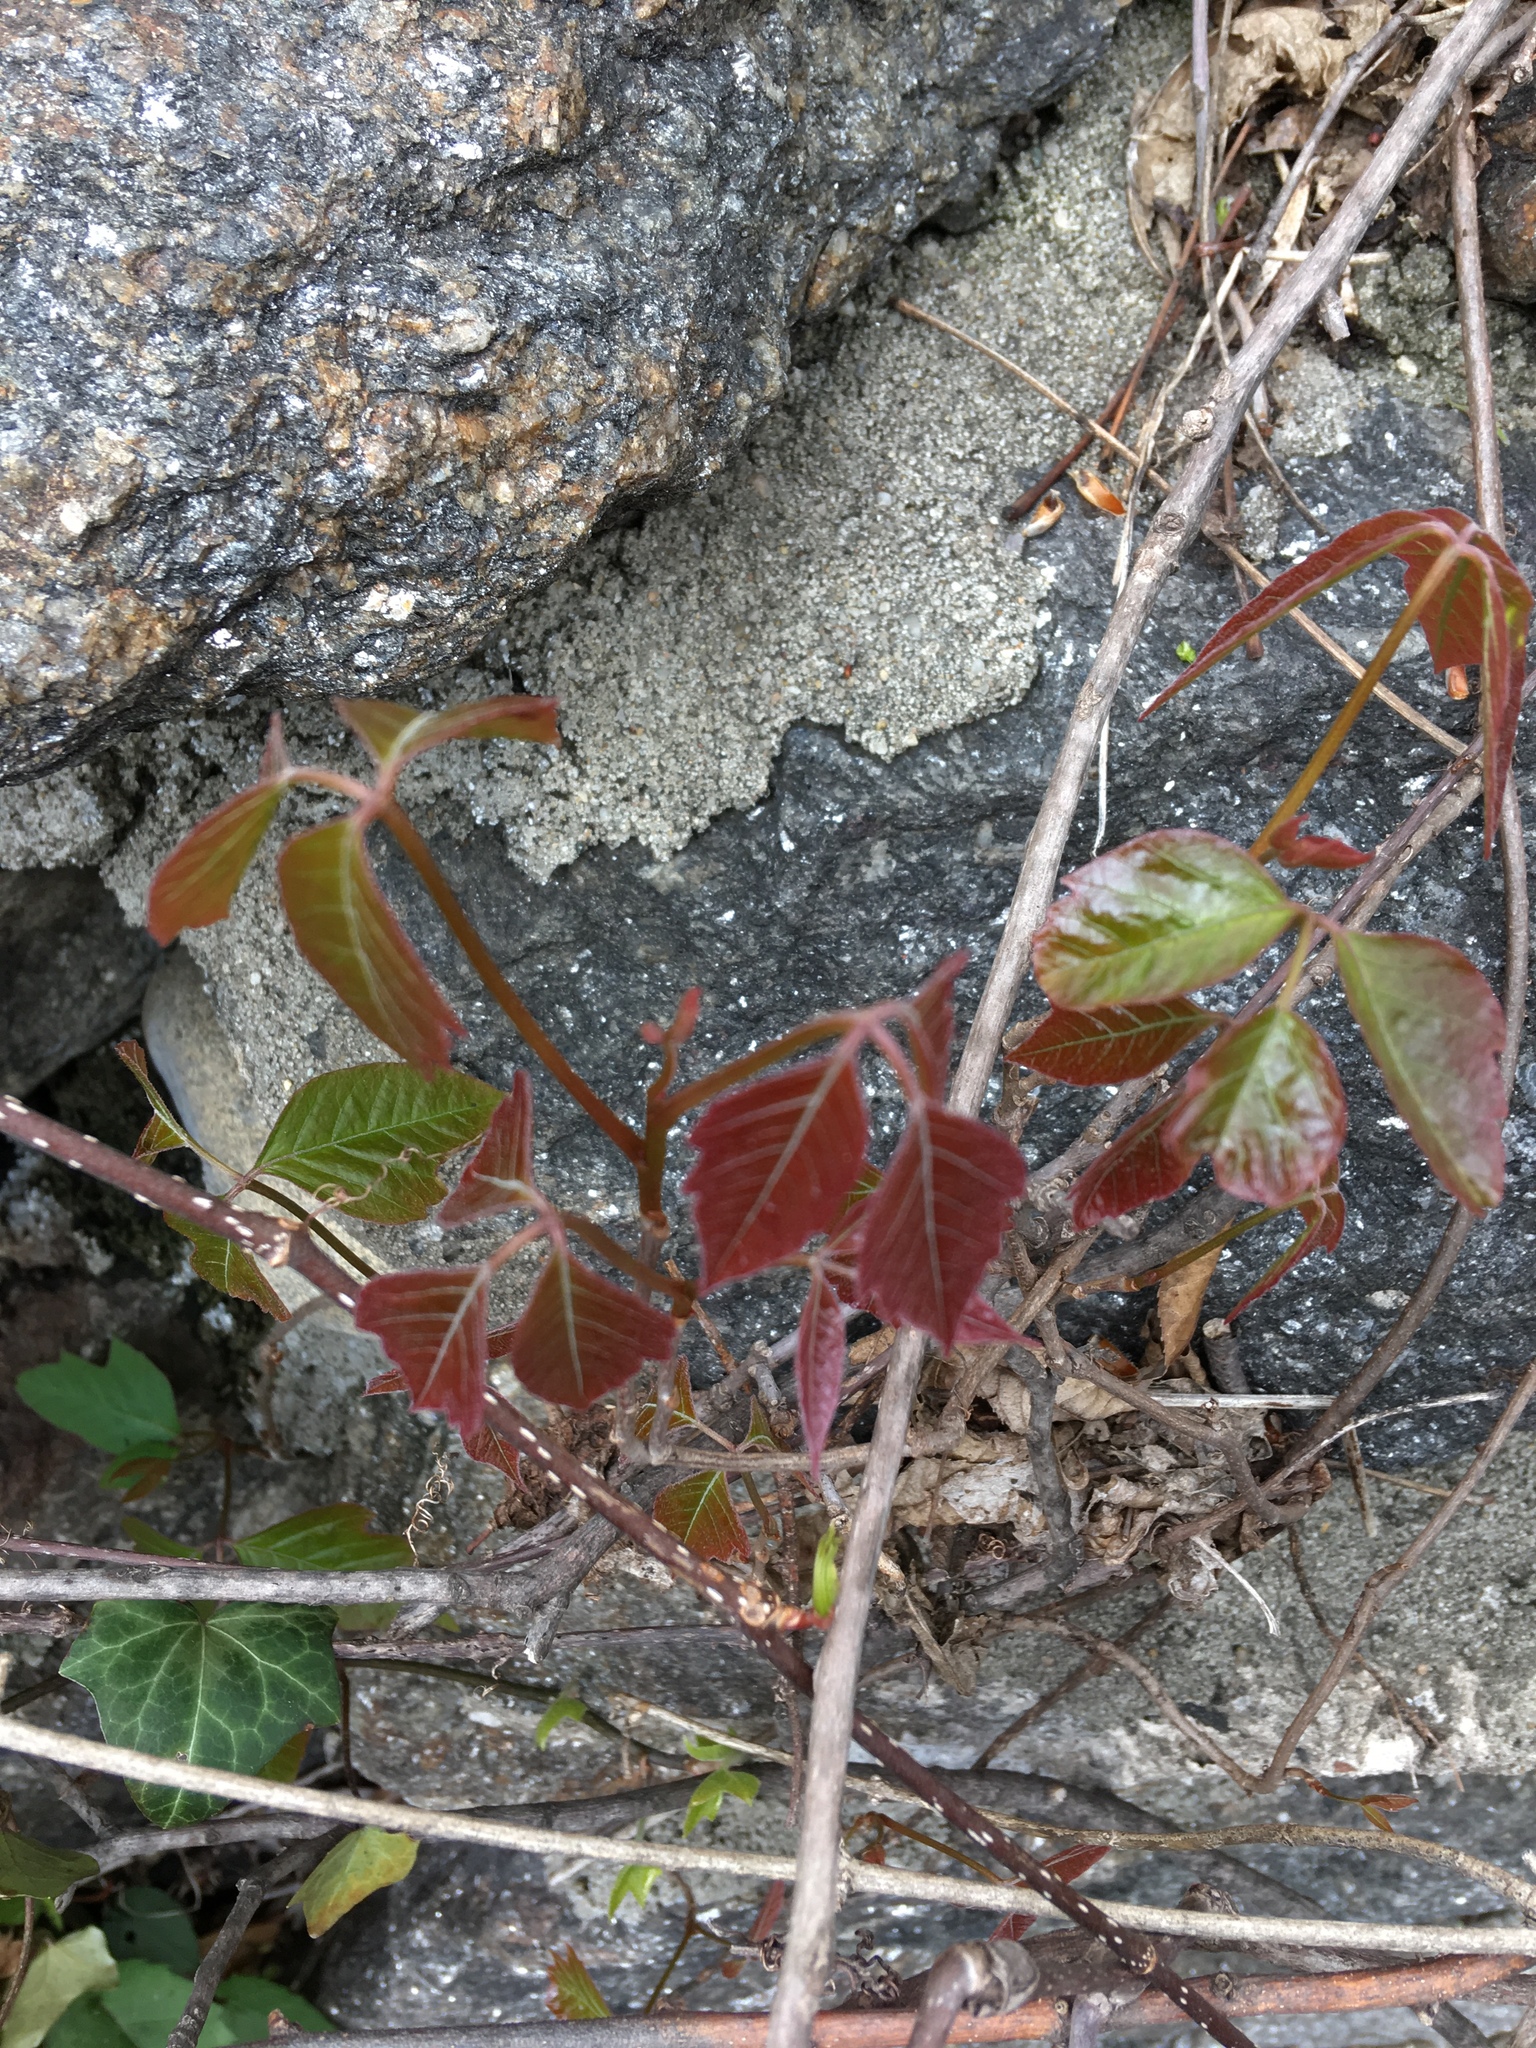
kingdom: Plantae
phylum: Tracheophyta
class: Magnoliopsida
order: Sapindales
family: Anacardiaceae
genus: Toxicodendron
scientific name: Toxicodendron radicans
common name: Poison ivy
